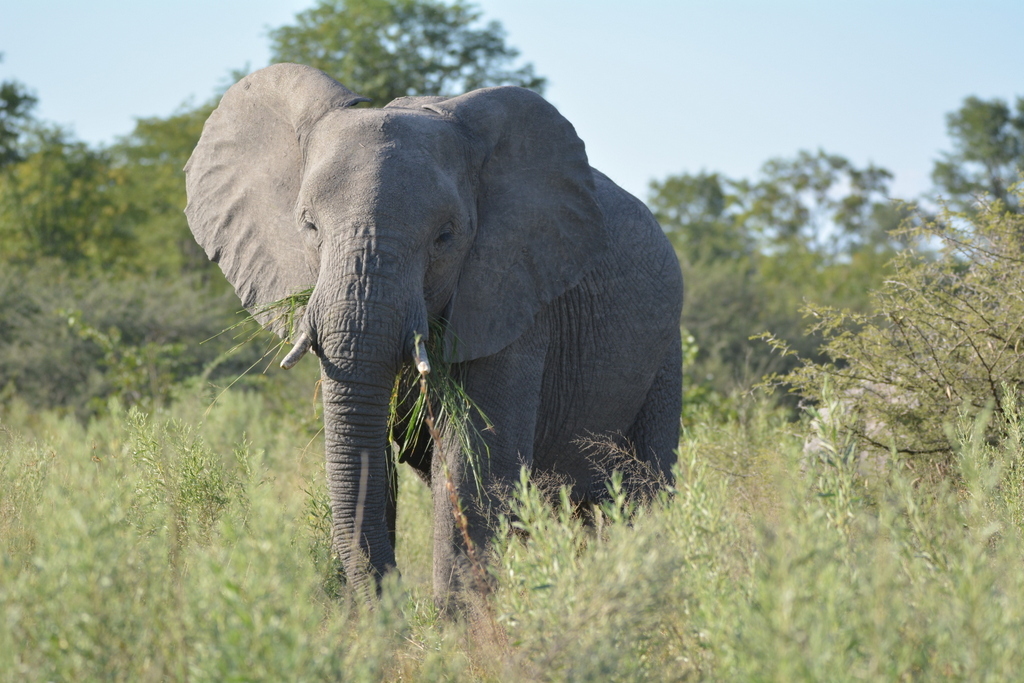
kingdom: Animalia
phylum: Chordata
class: Mammalia
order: Proboscidea
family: Elephantidae
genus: Loxodonta
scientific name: Loxodonta africana
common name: African elephant
